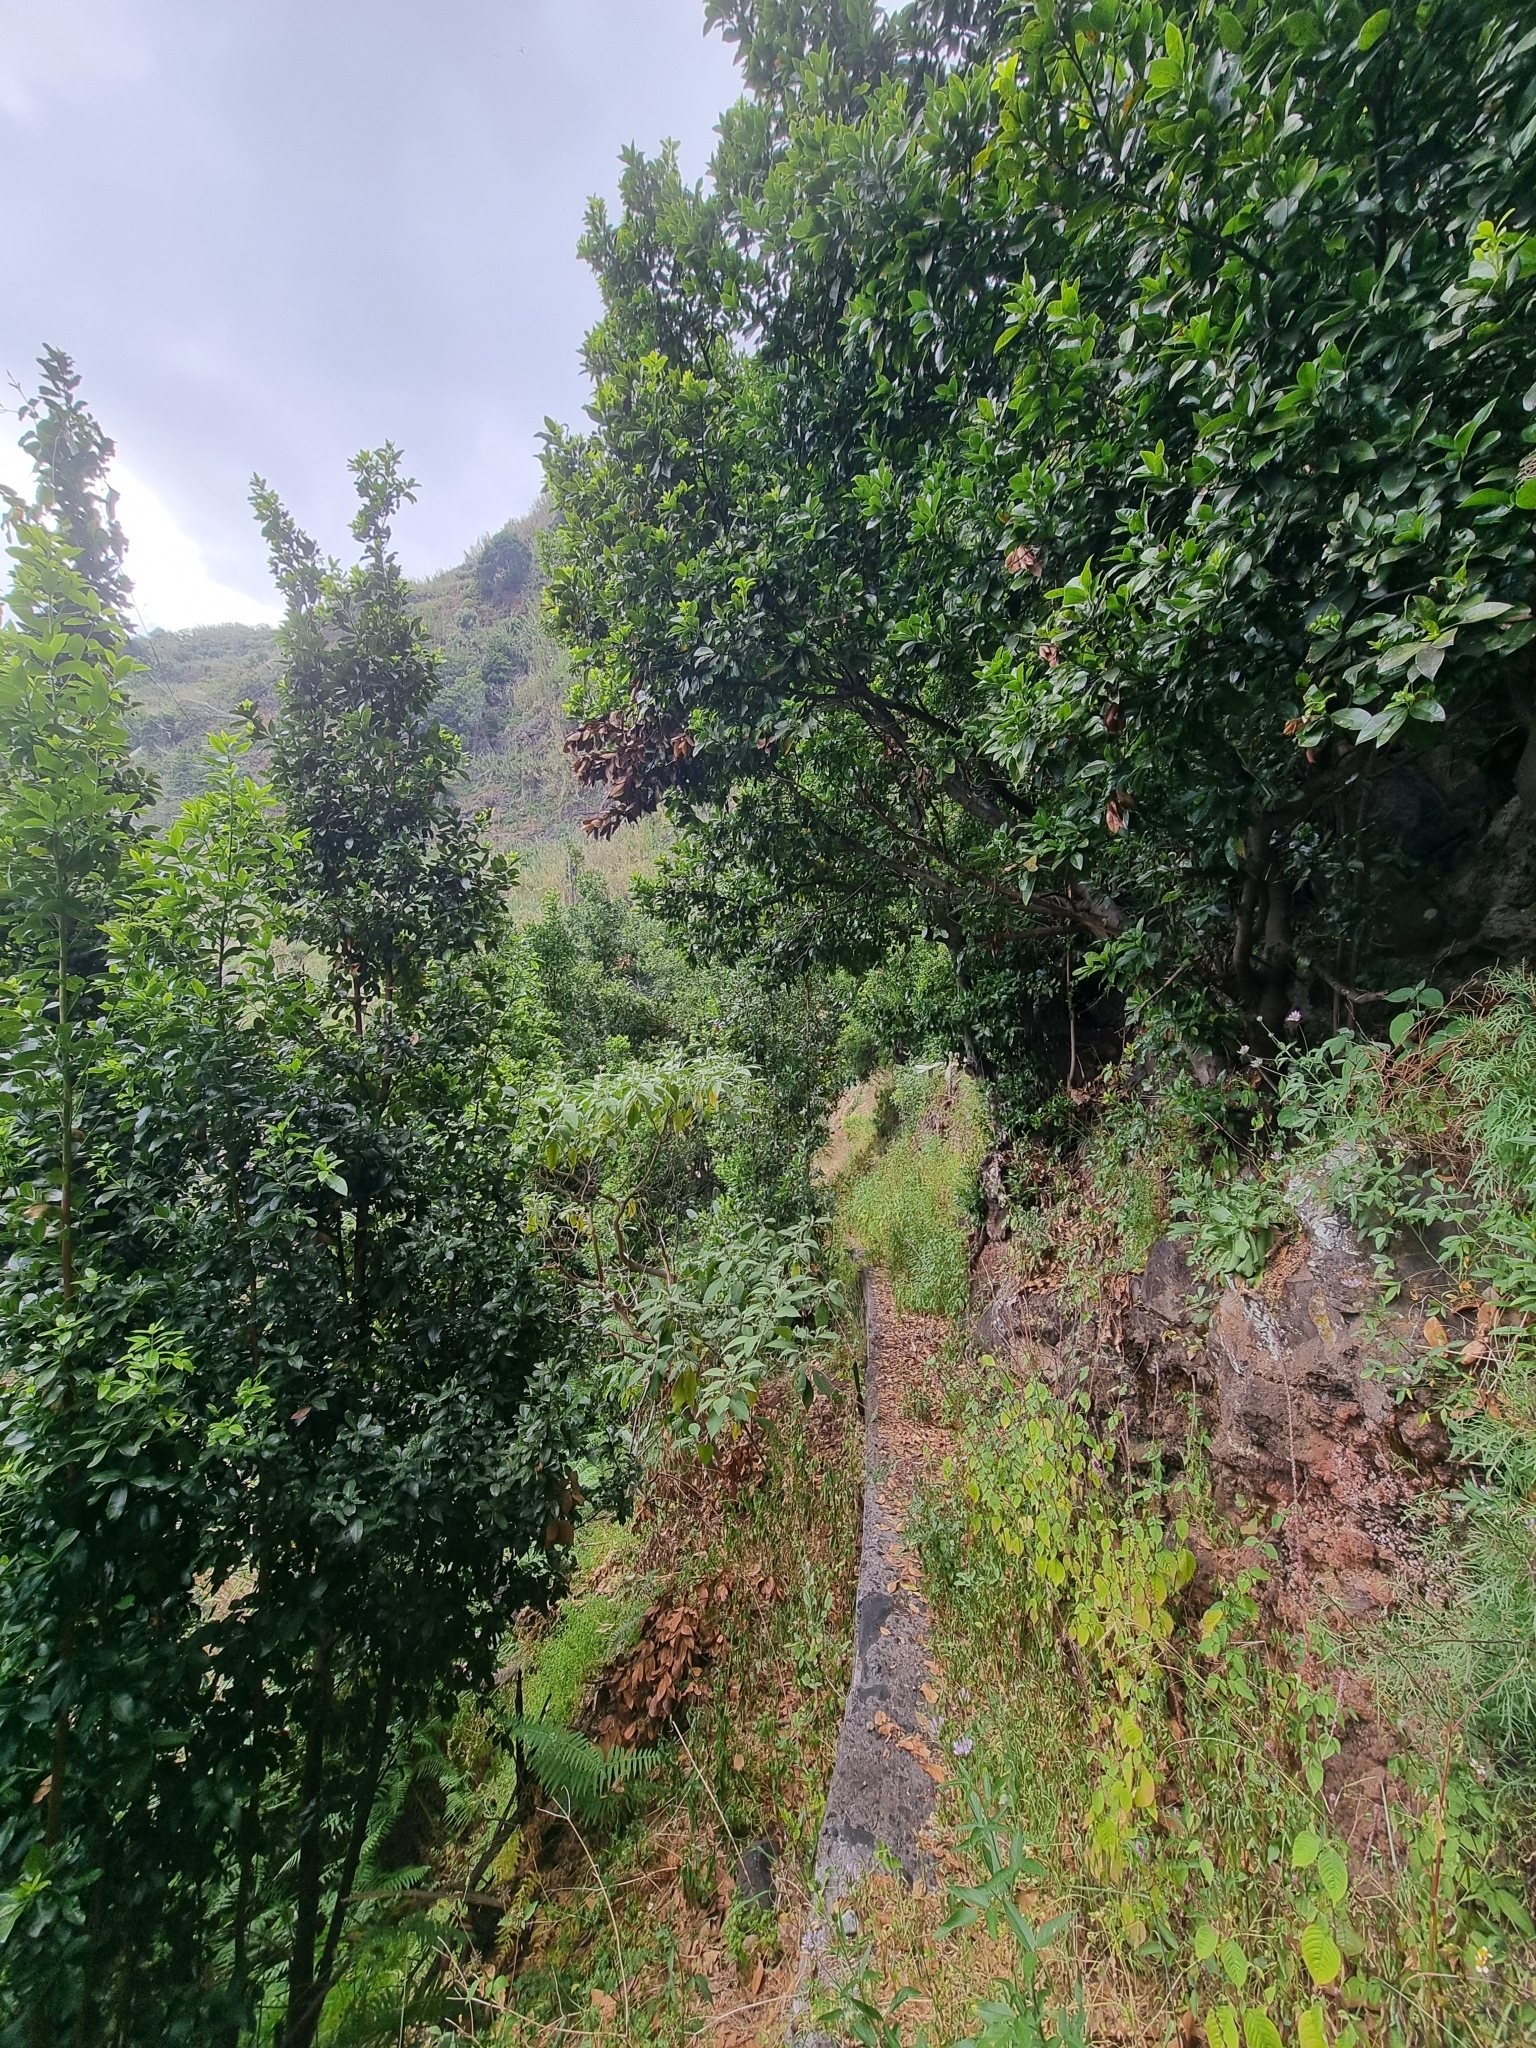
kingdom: Plantae
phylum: Tracheophyta
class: Magnoliopsida
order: Laurales
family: Lauraceae
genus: Apollonias
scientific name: Apollonias barbujana
